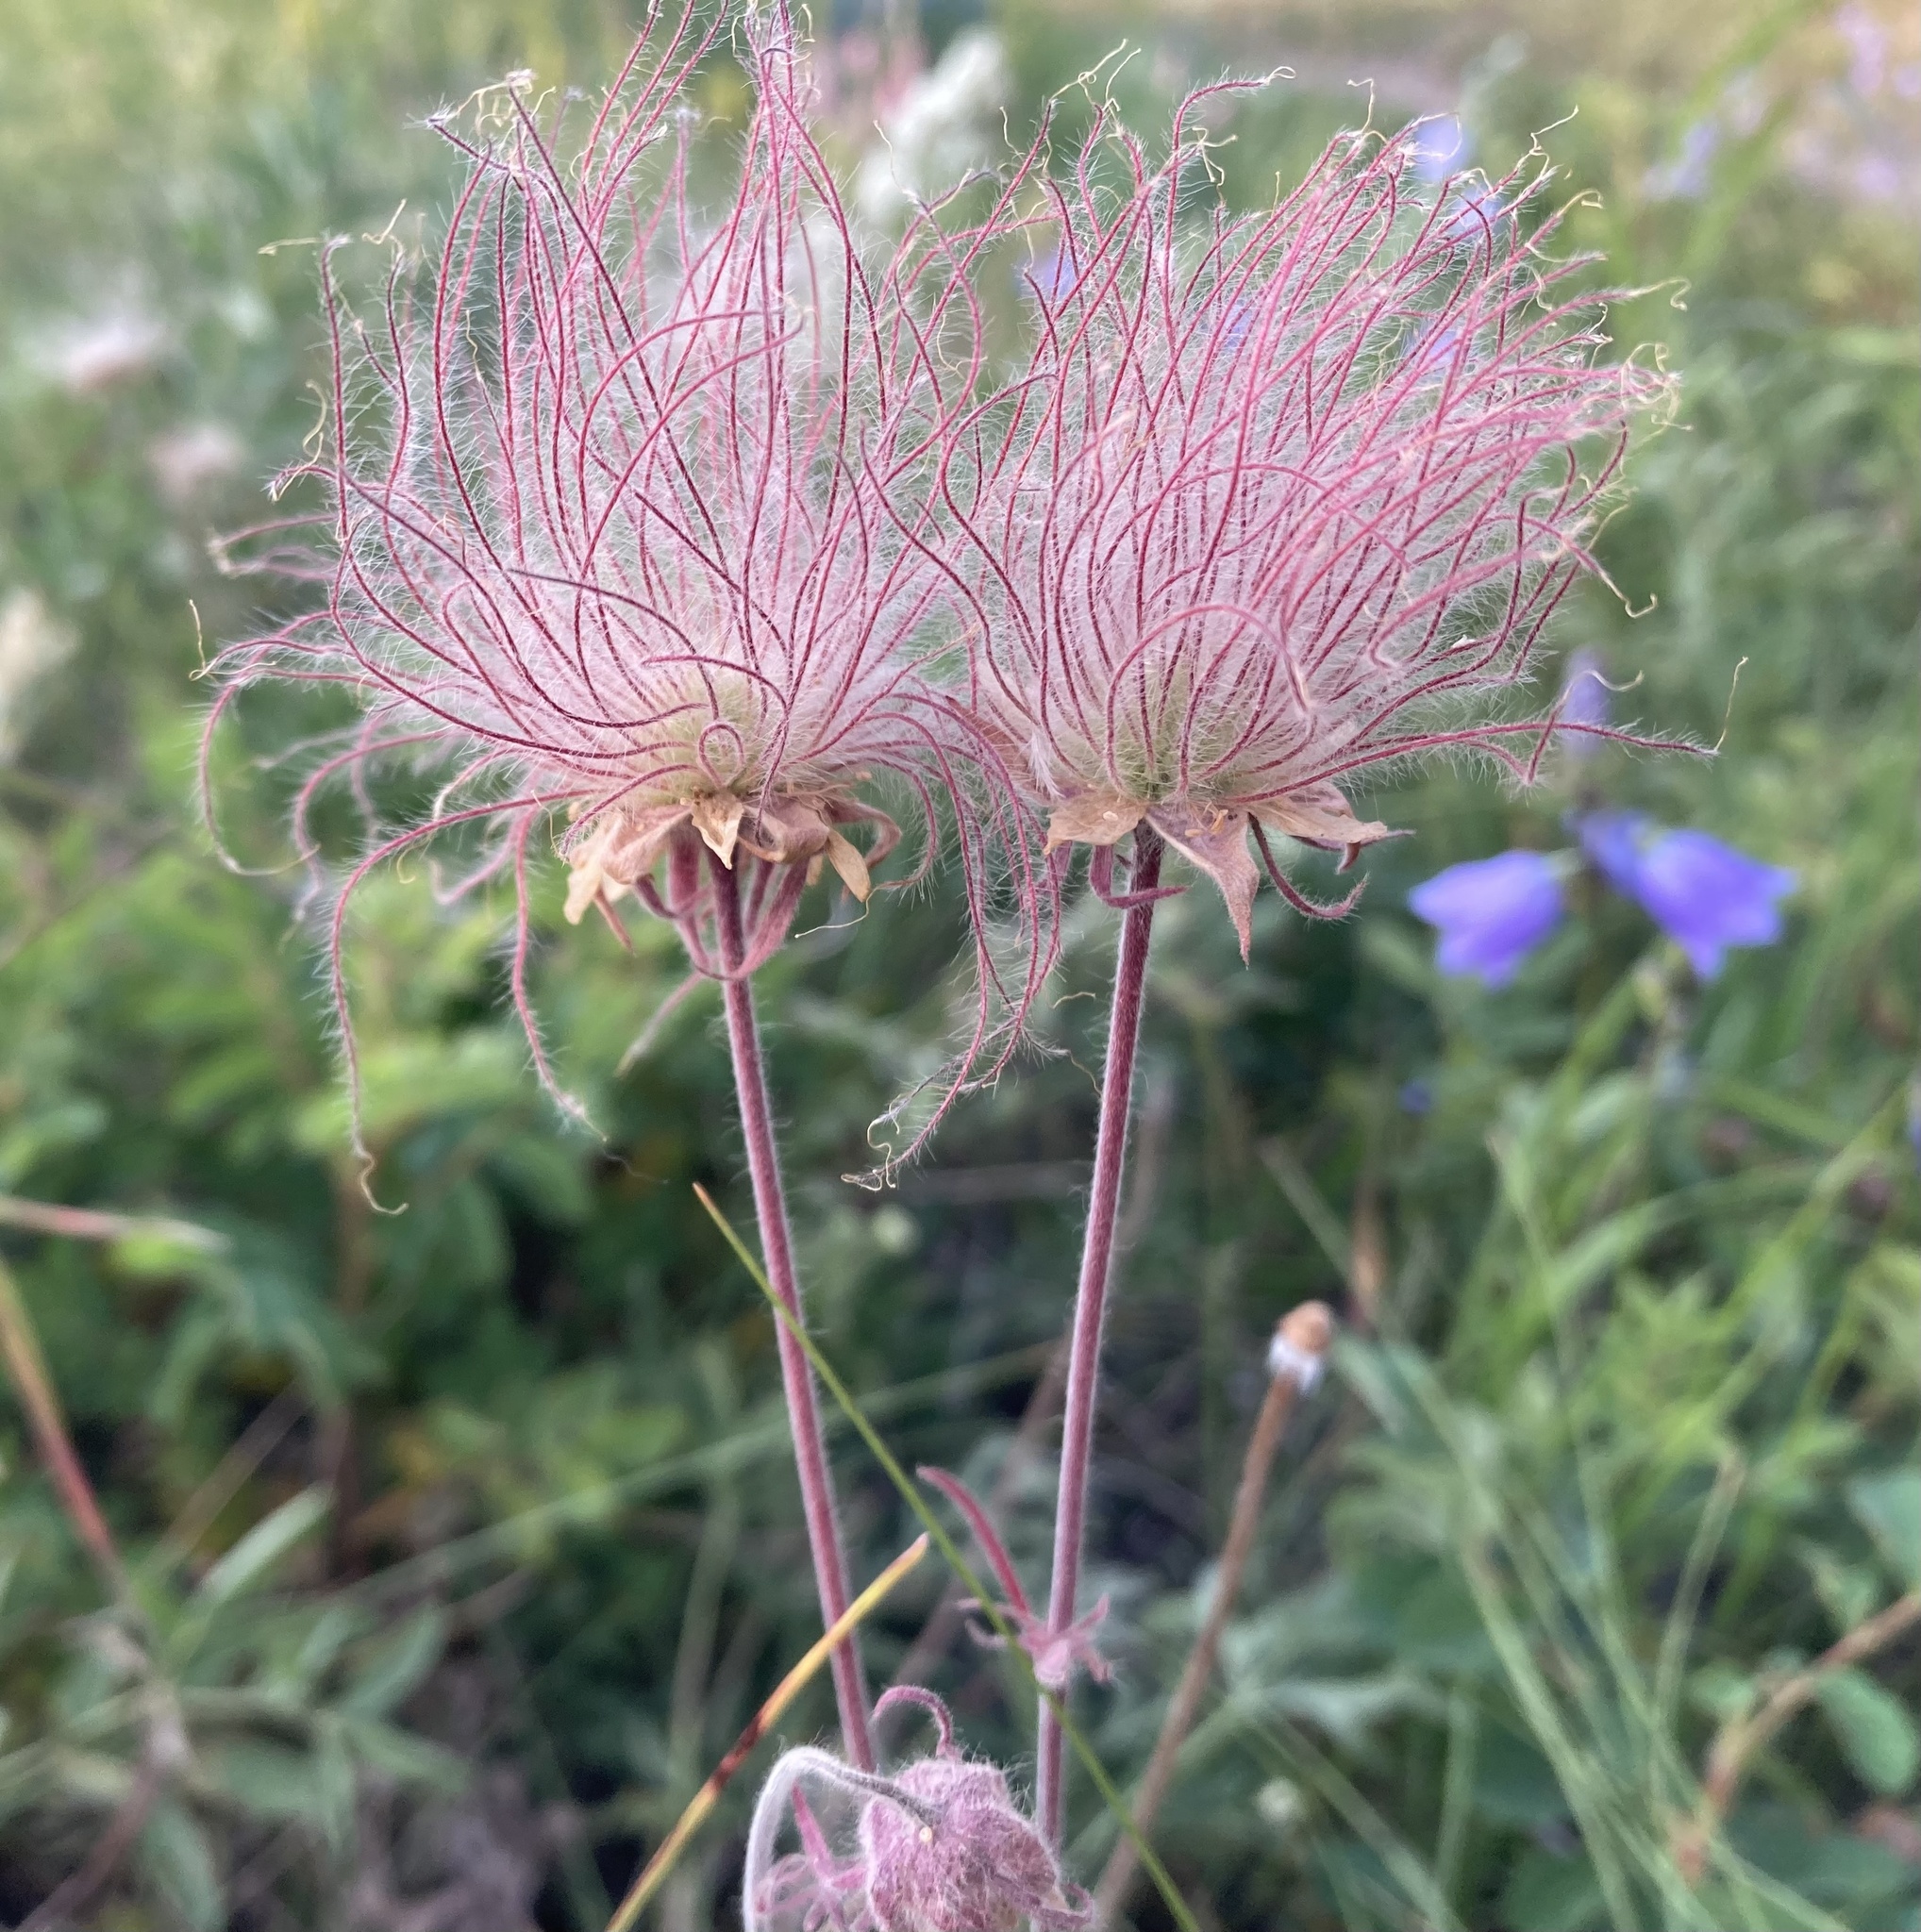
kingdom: Plantae
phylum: Tracheophyta
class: Magnoliopsida
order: Rosales
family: Rosaceae
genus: Geum
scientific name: Geum triflorum
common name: Old man's whiskers
